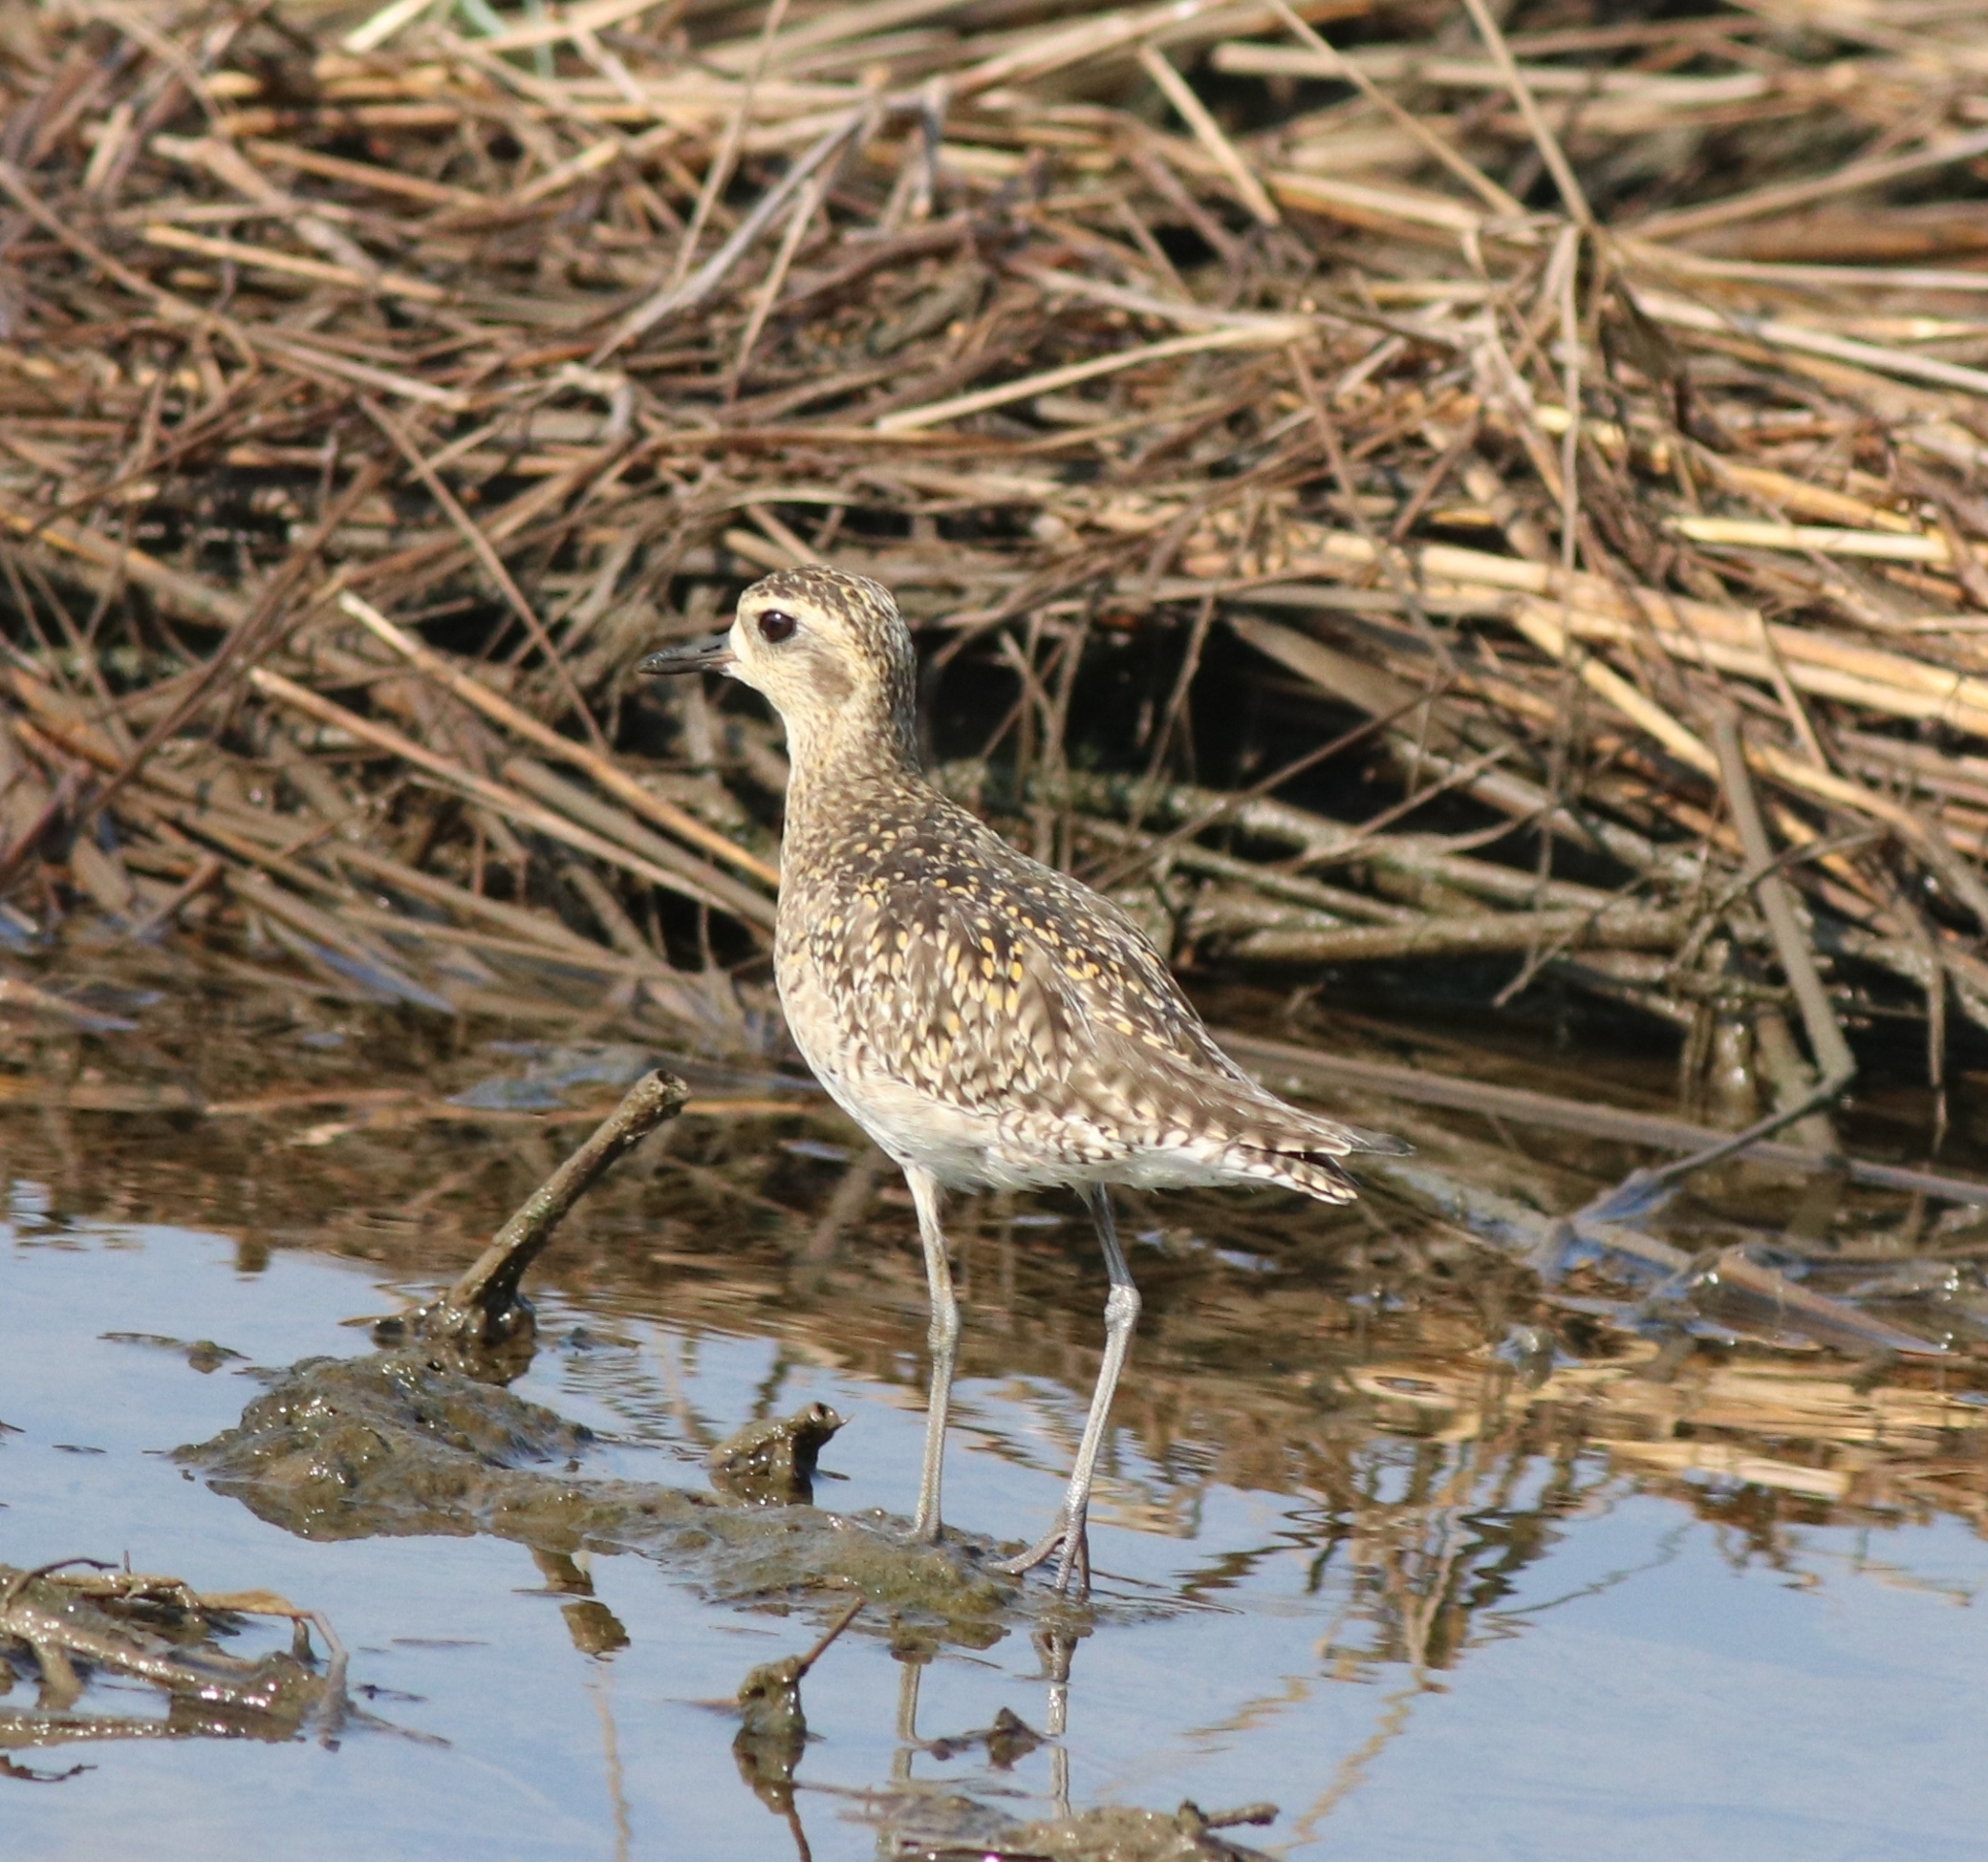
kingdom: Animalia
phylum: Chordata
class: Aves
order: Charadriiformes
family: Charadriidae
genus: Pluvialis
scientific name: Pluvialis fulva
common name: Pacific golden plover
